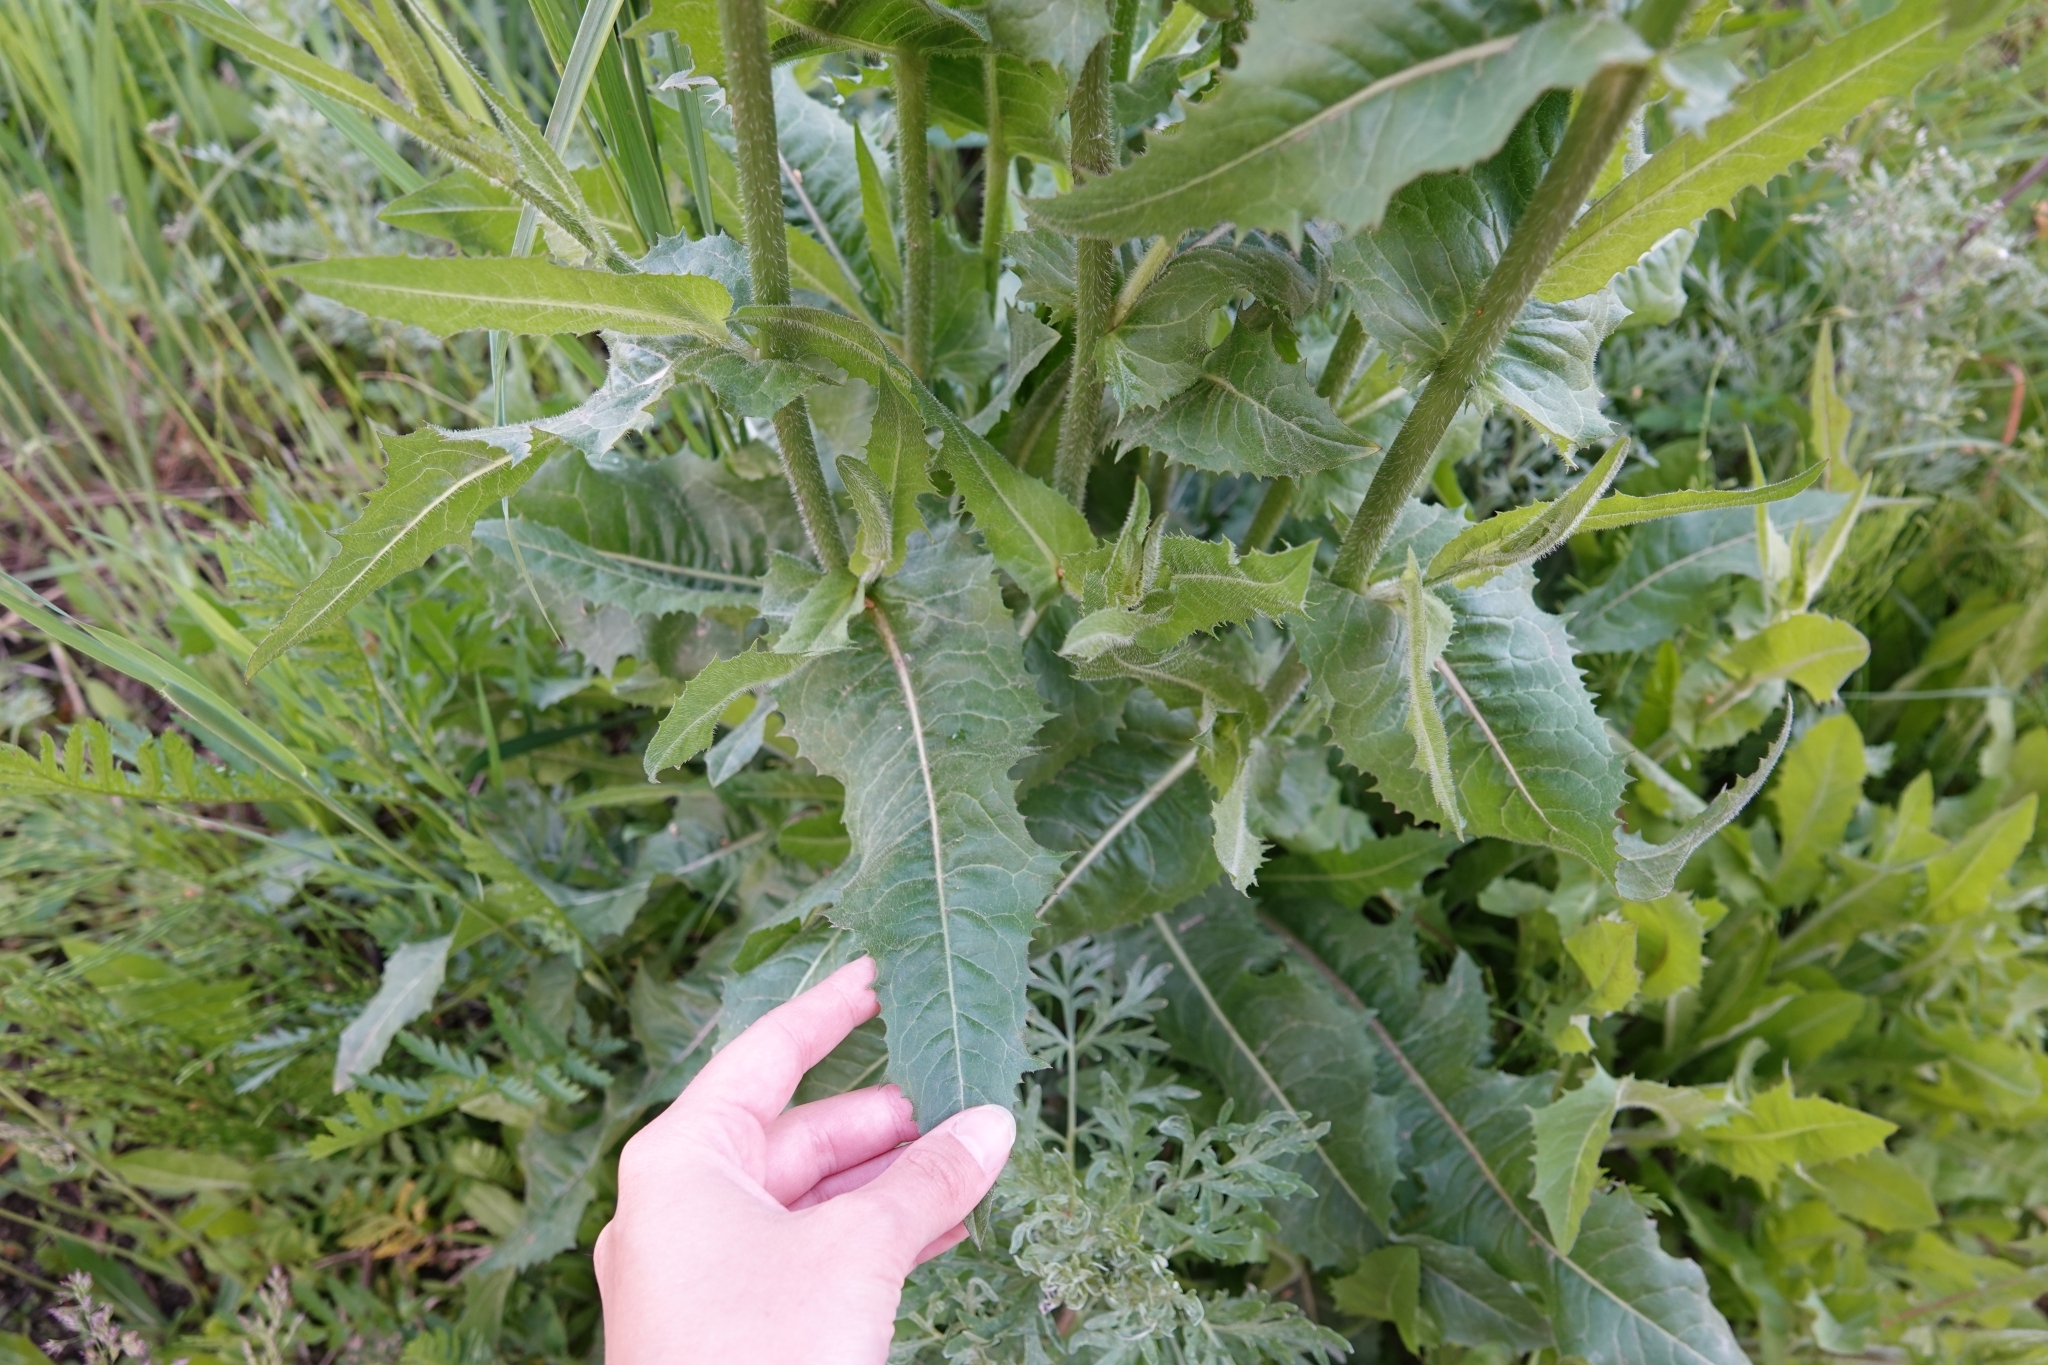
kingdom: Plantae
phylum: Tracheophyta
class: Magnoliopsida
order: Asterales
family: Asteraceae
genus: Cichorium
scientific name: Cichorium intybus
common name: Chicory
